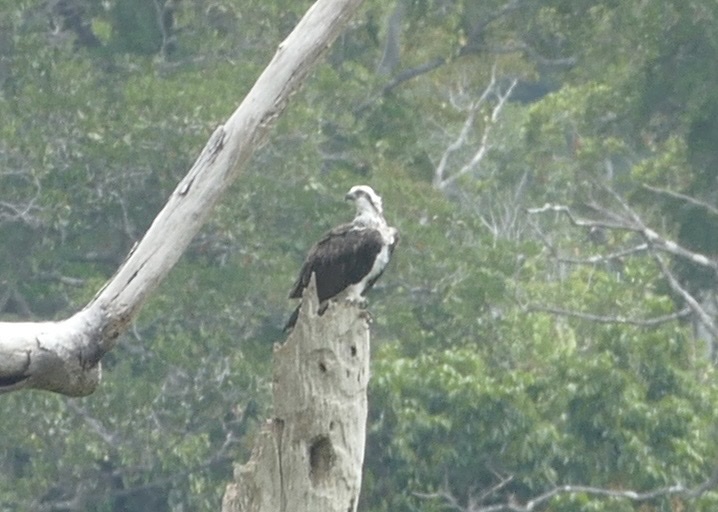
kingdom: Animalia
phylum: Chordata
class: Aves
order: Accipitriformes
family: Pandionidae
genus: Pandion
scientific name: Pandion haliaetus
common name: Osprey
